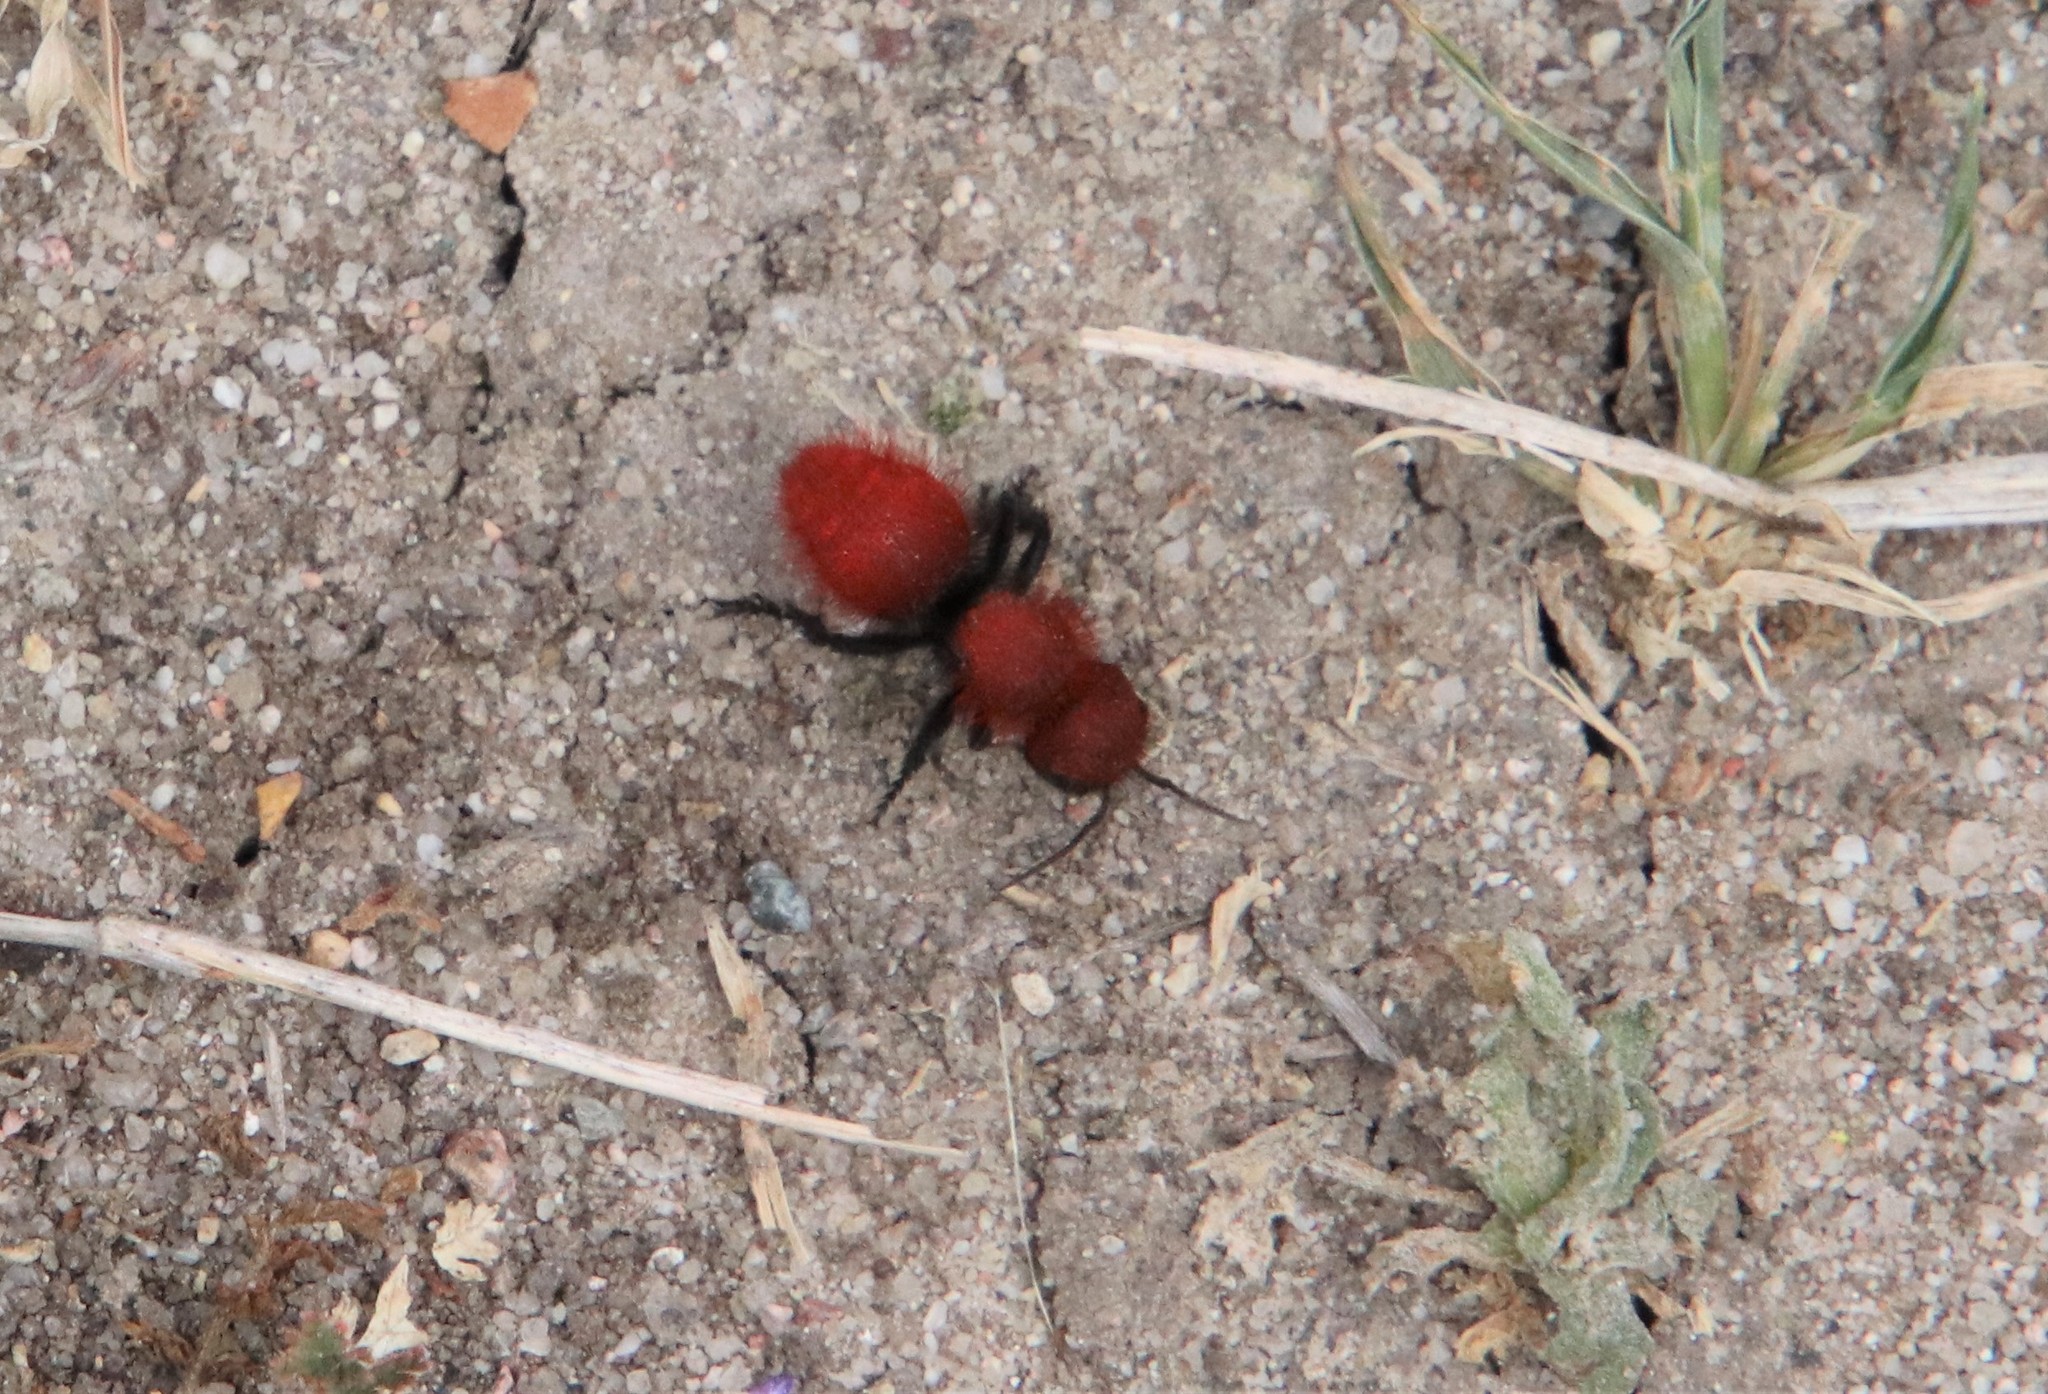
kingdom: Animalia
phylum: Arthropoda
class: Insecta
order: Hymenoptera
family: Mutillidae
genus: Dasymutilla
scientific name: Dasymutilla
